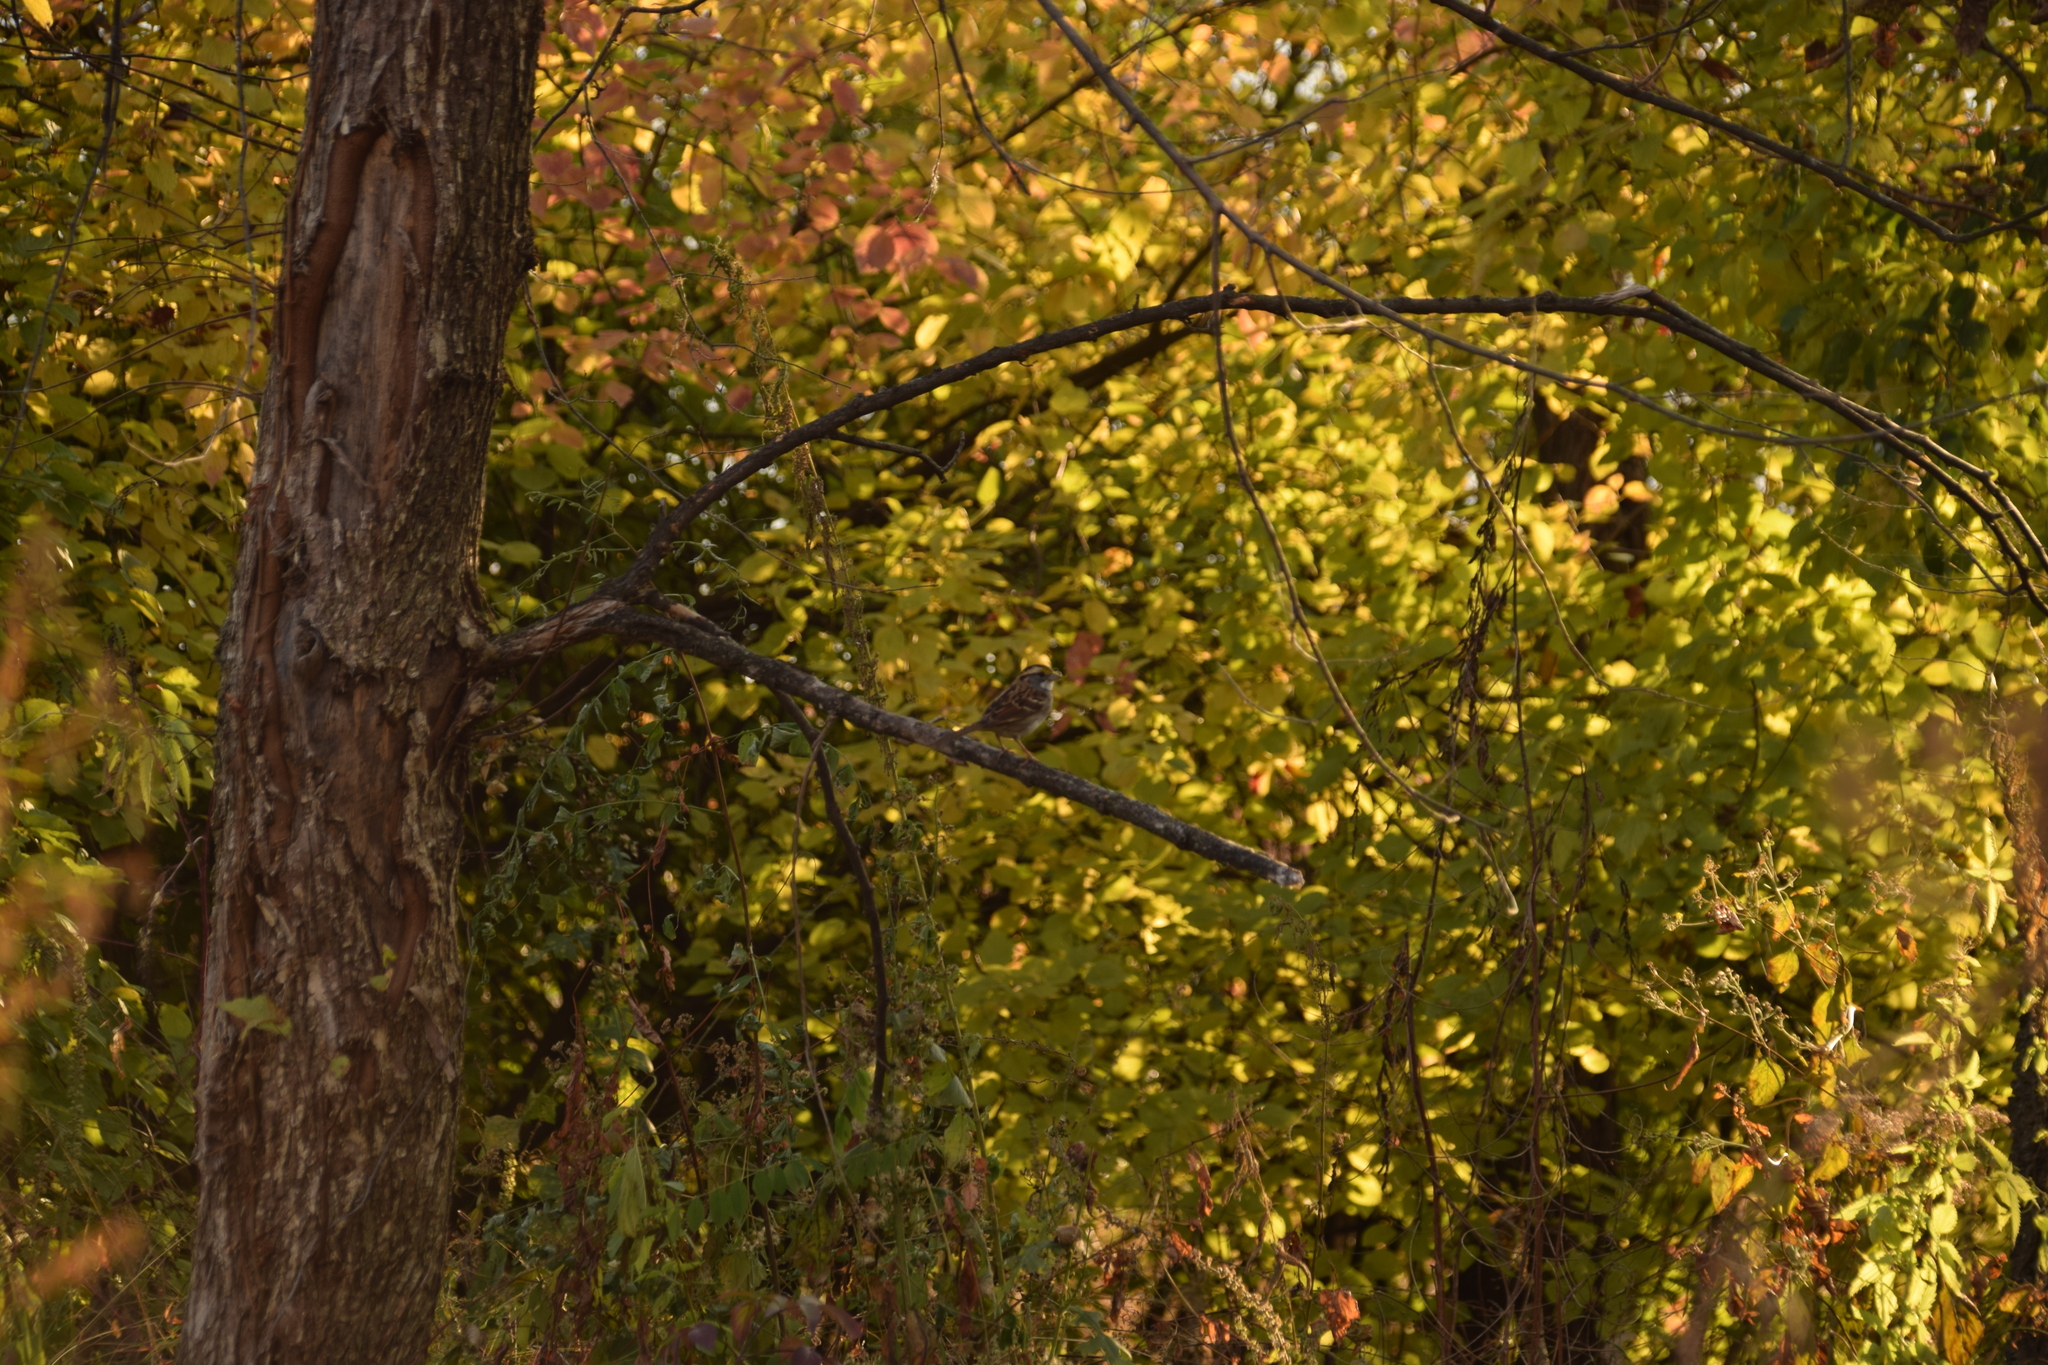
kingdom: Animalia
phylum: Chordata
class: Aves
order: Passeriformes
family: Passerellidae
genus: Zonotrichia
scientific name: Zonotrichia albicollis
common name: White-throated sparrow
